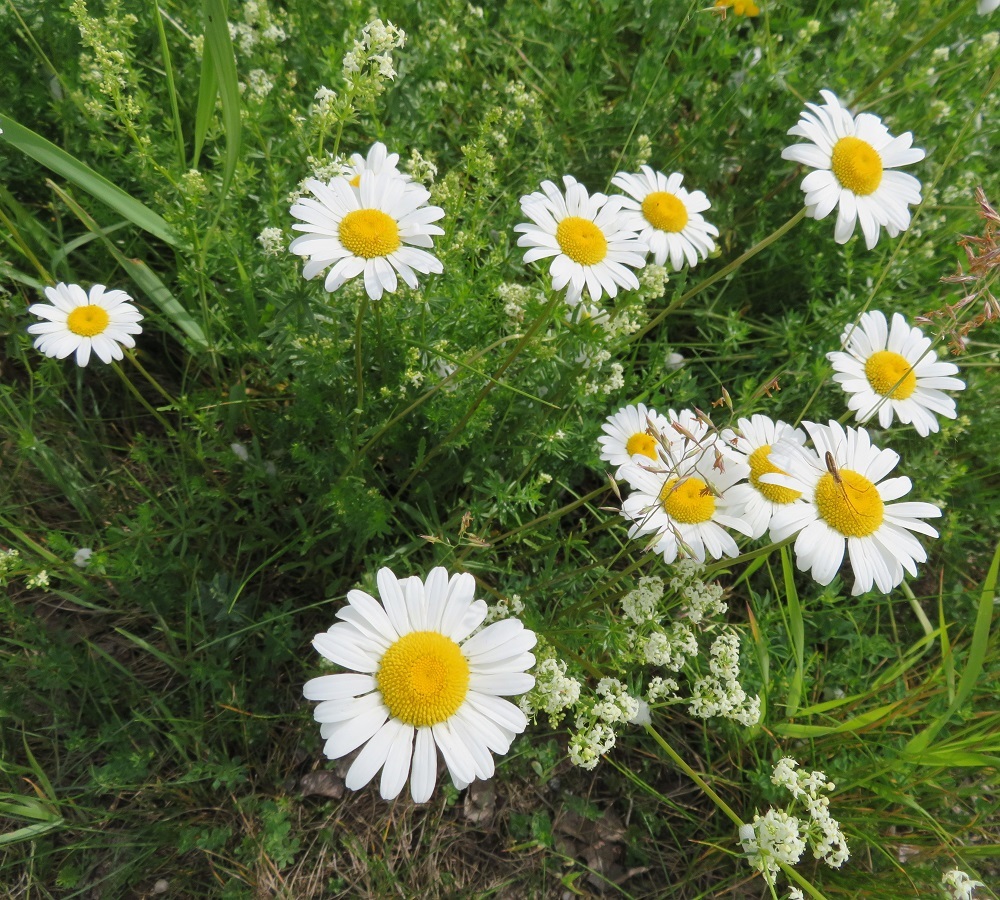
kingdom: Plantae
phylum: Tracheophyta
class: Magnoliopsida
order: Asterales
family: Asteraceae
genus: Leucanthemum
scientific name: Leucanthemum vulgare
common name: Oxeye daisy
